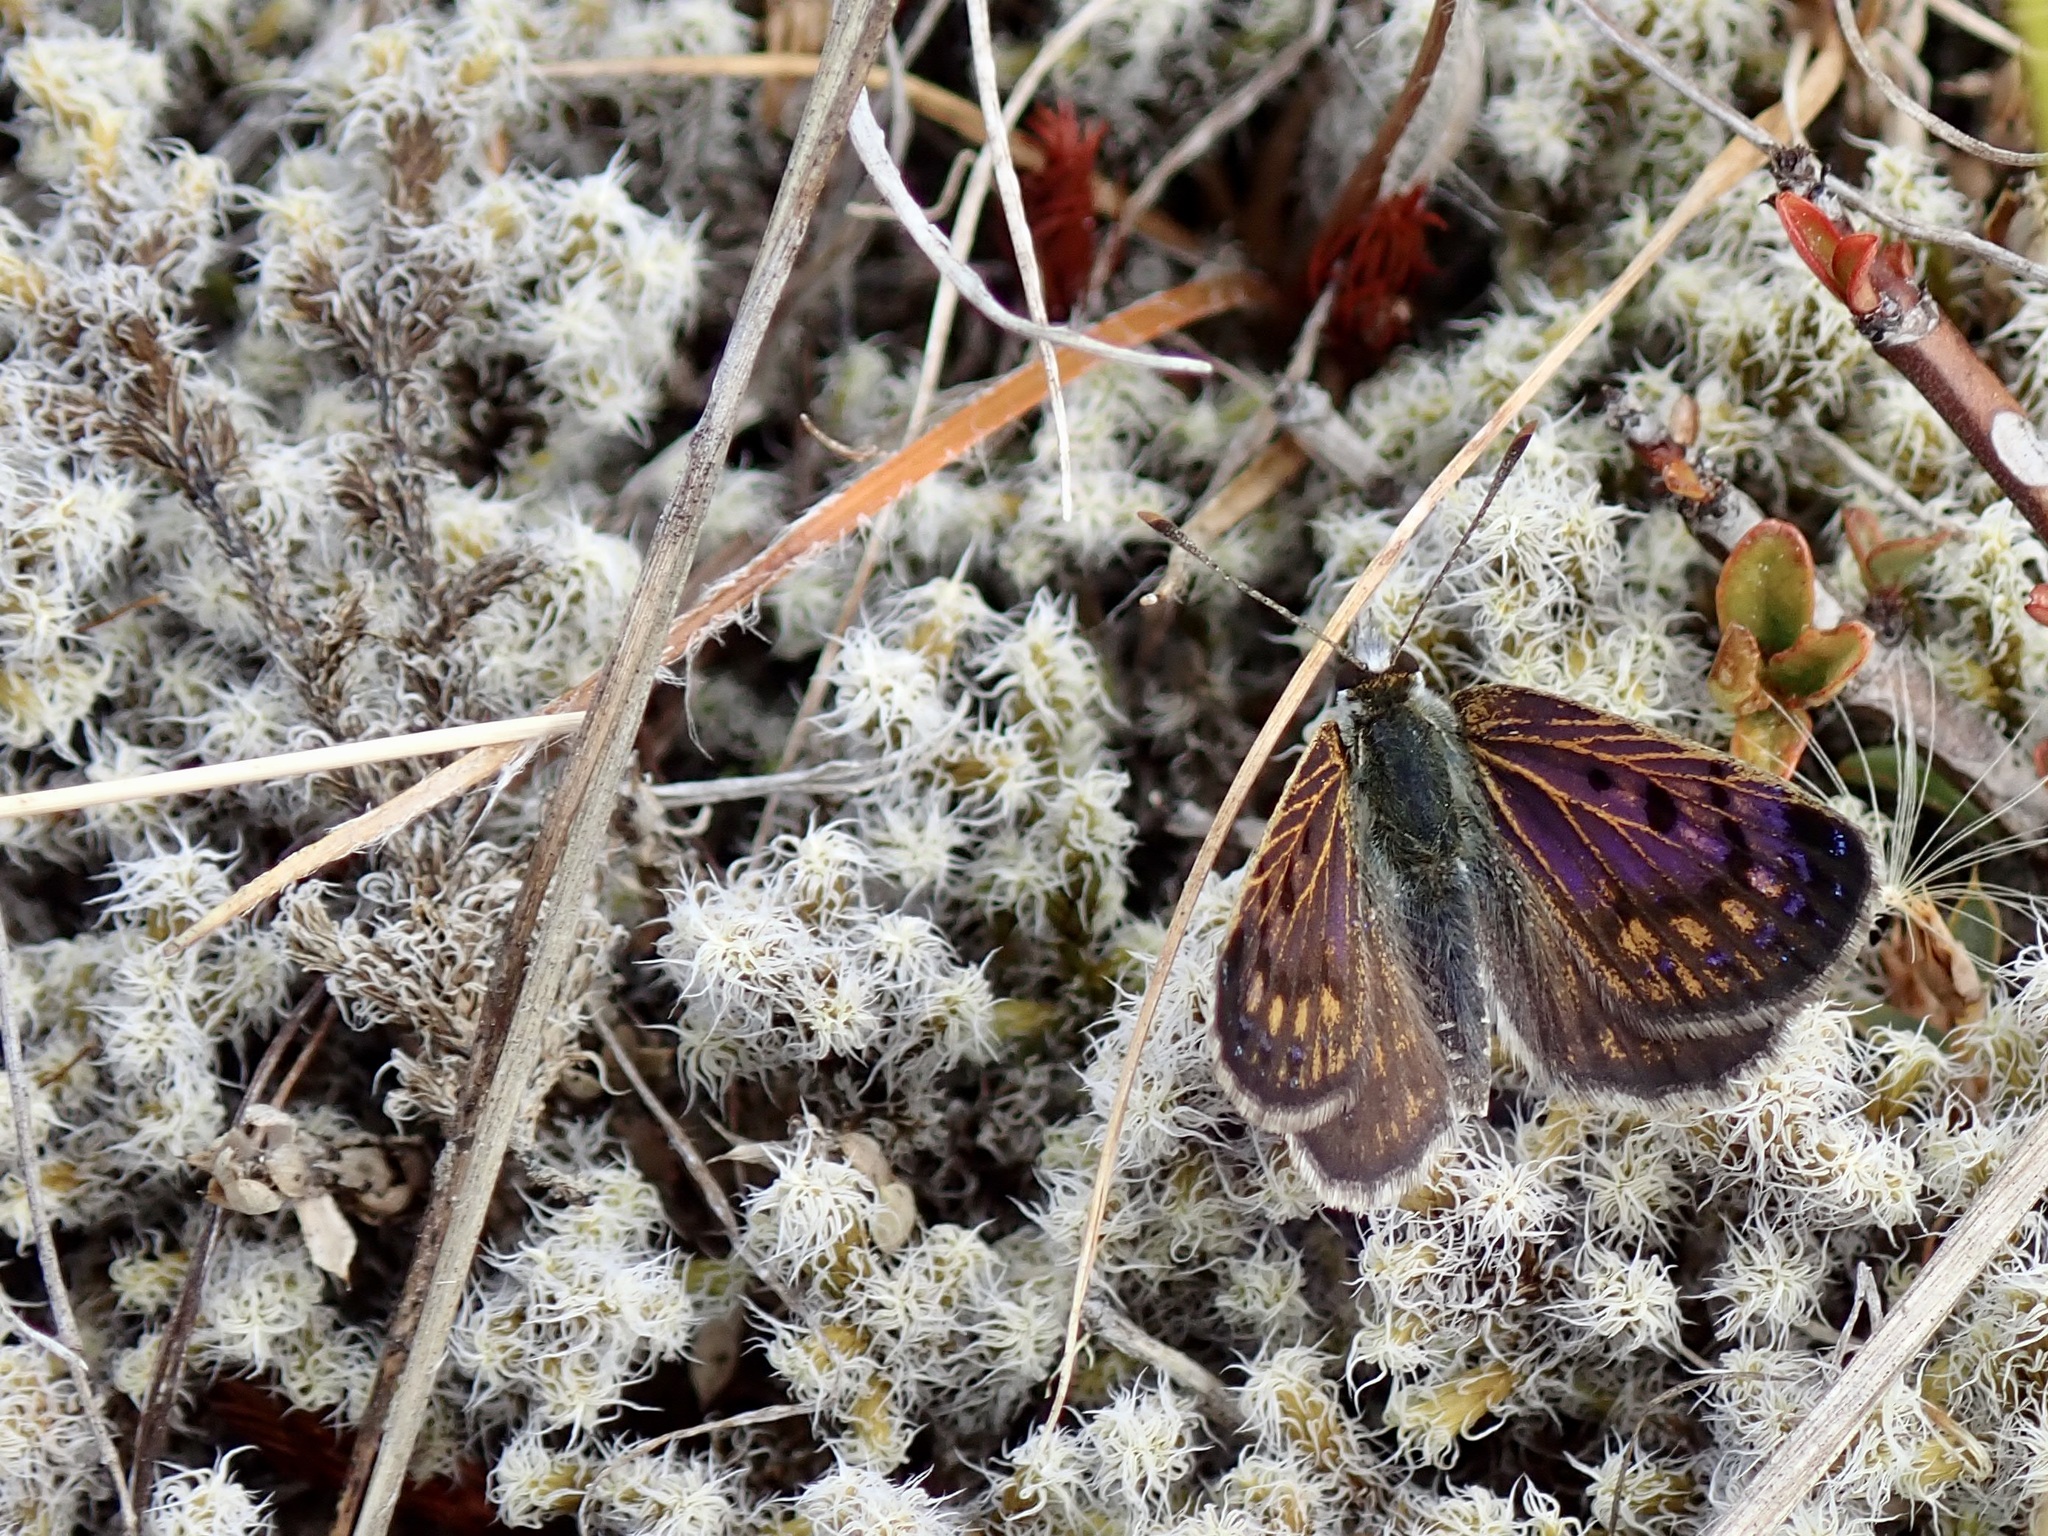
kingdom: Animalia
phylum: Arthropoda
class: Insecta
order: Lepidoptera
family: Lycaenidae
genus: Lycaena
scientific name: Lycaena tama
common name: Canterbury alpine boulder copper
